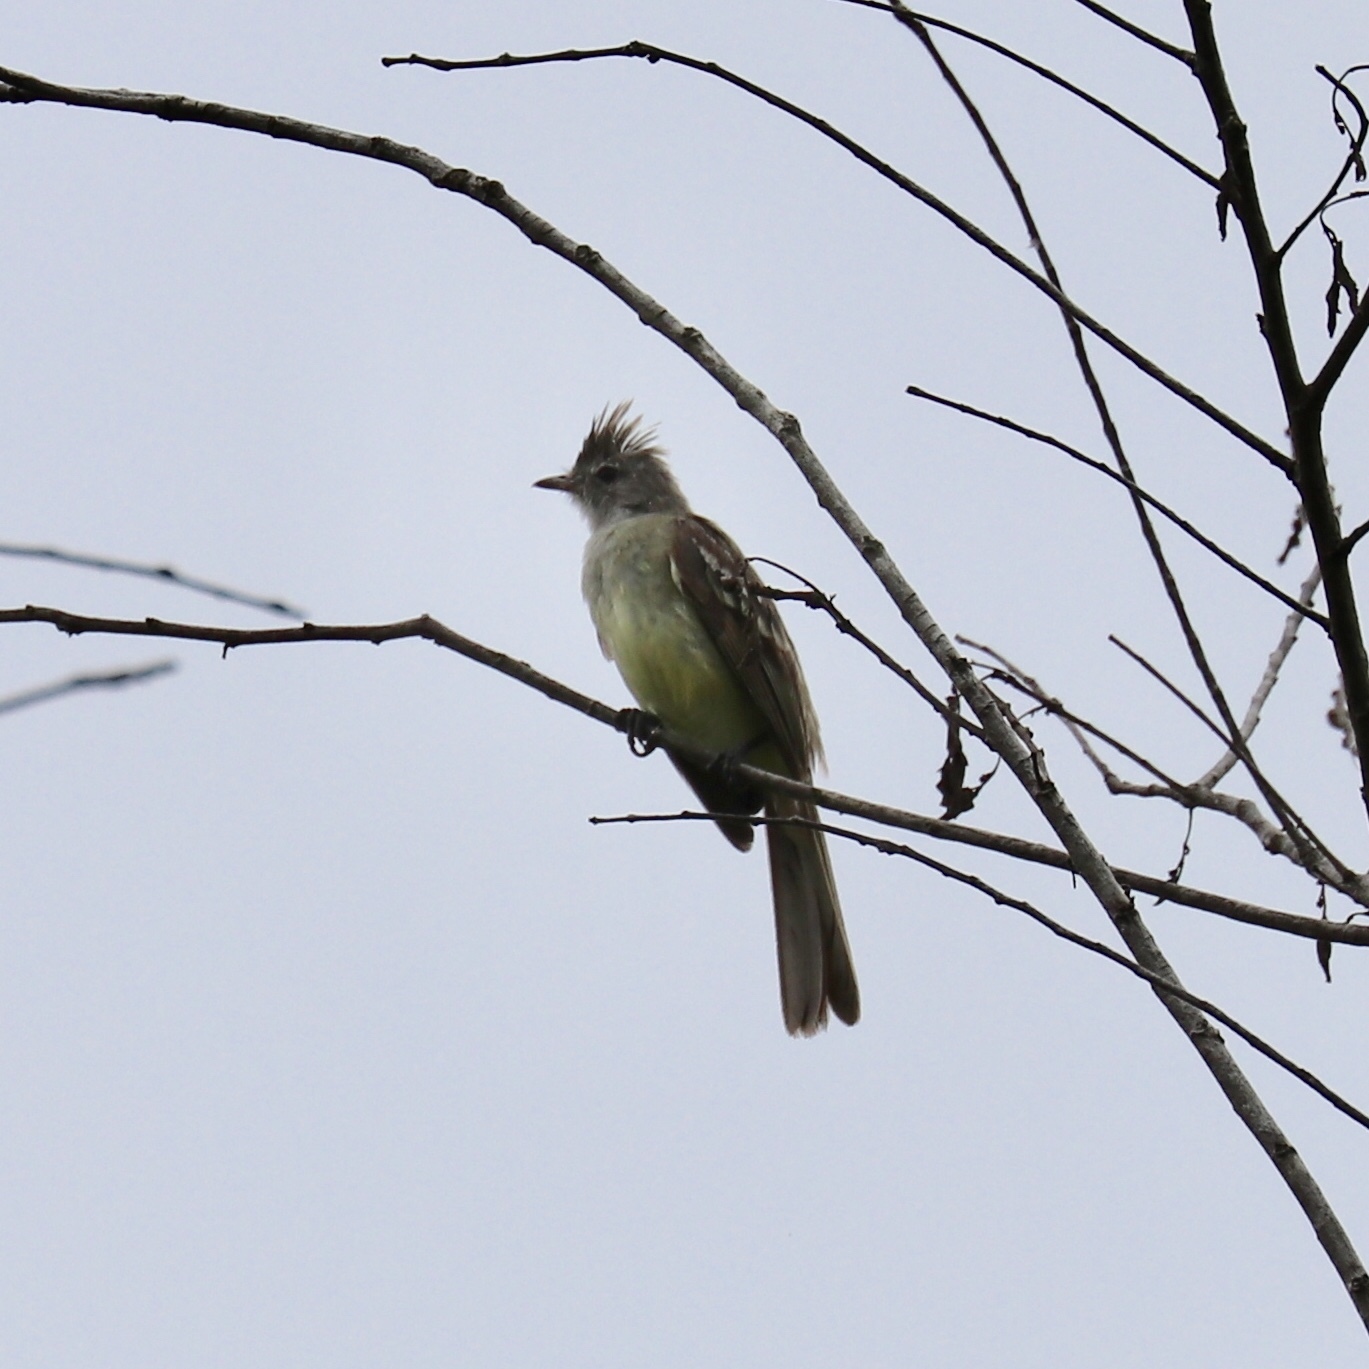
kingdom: Animalia
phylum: Chordata
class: Aves
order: Passeriformes
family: Tyrannidae
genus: Elaenia
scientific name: Elaenia flavogaster
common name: Yellow-bellied elaenia
